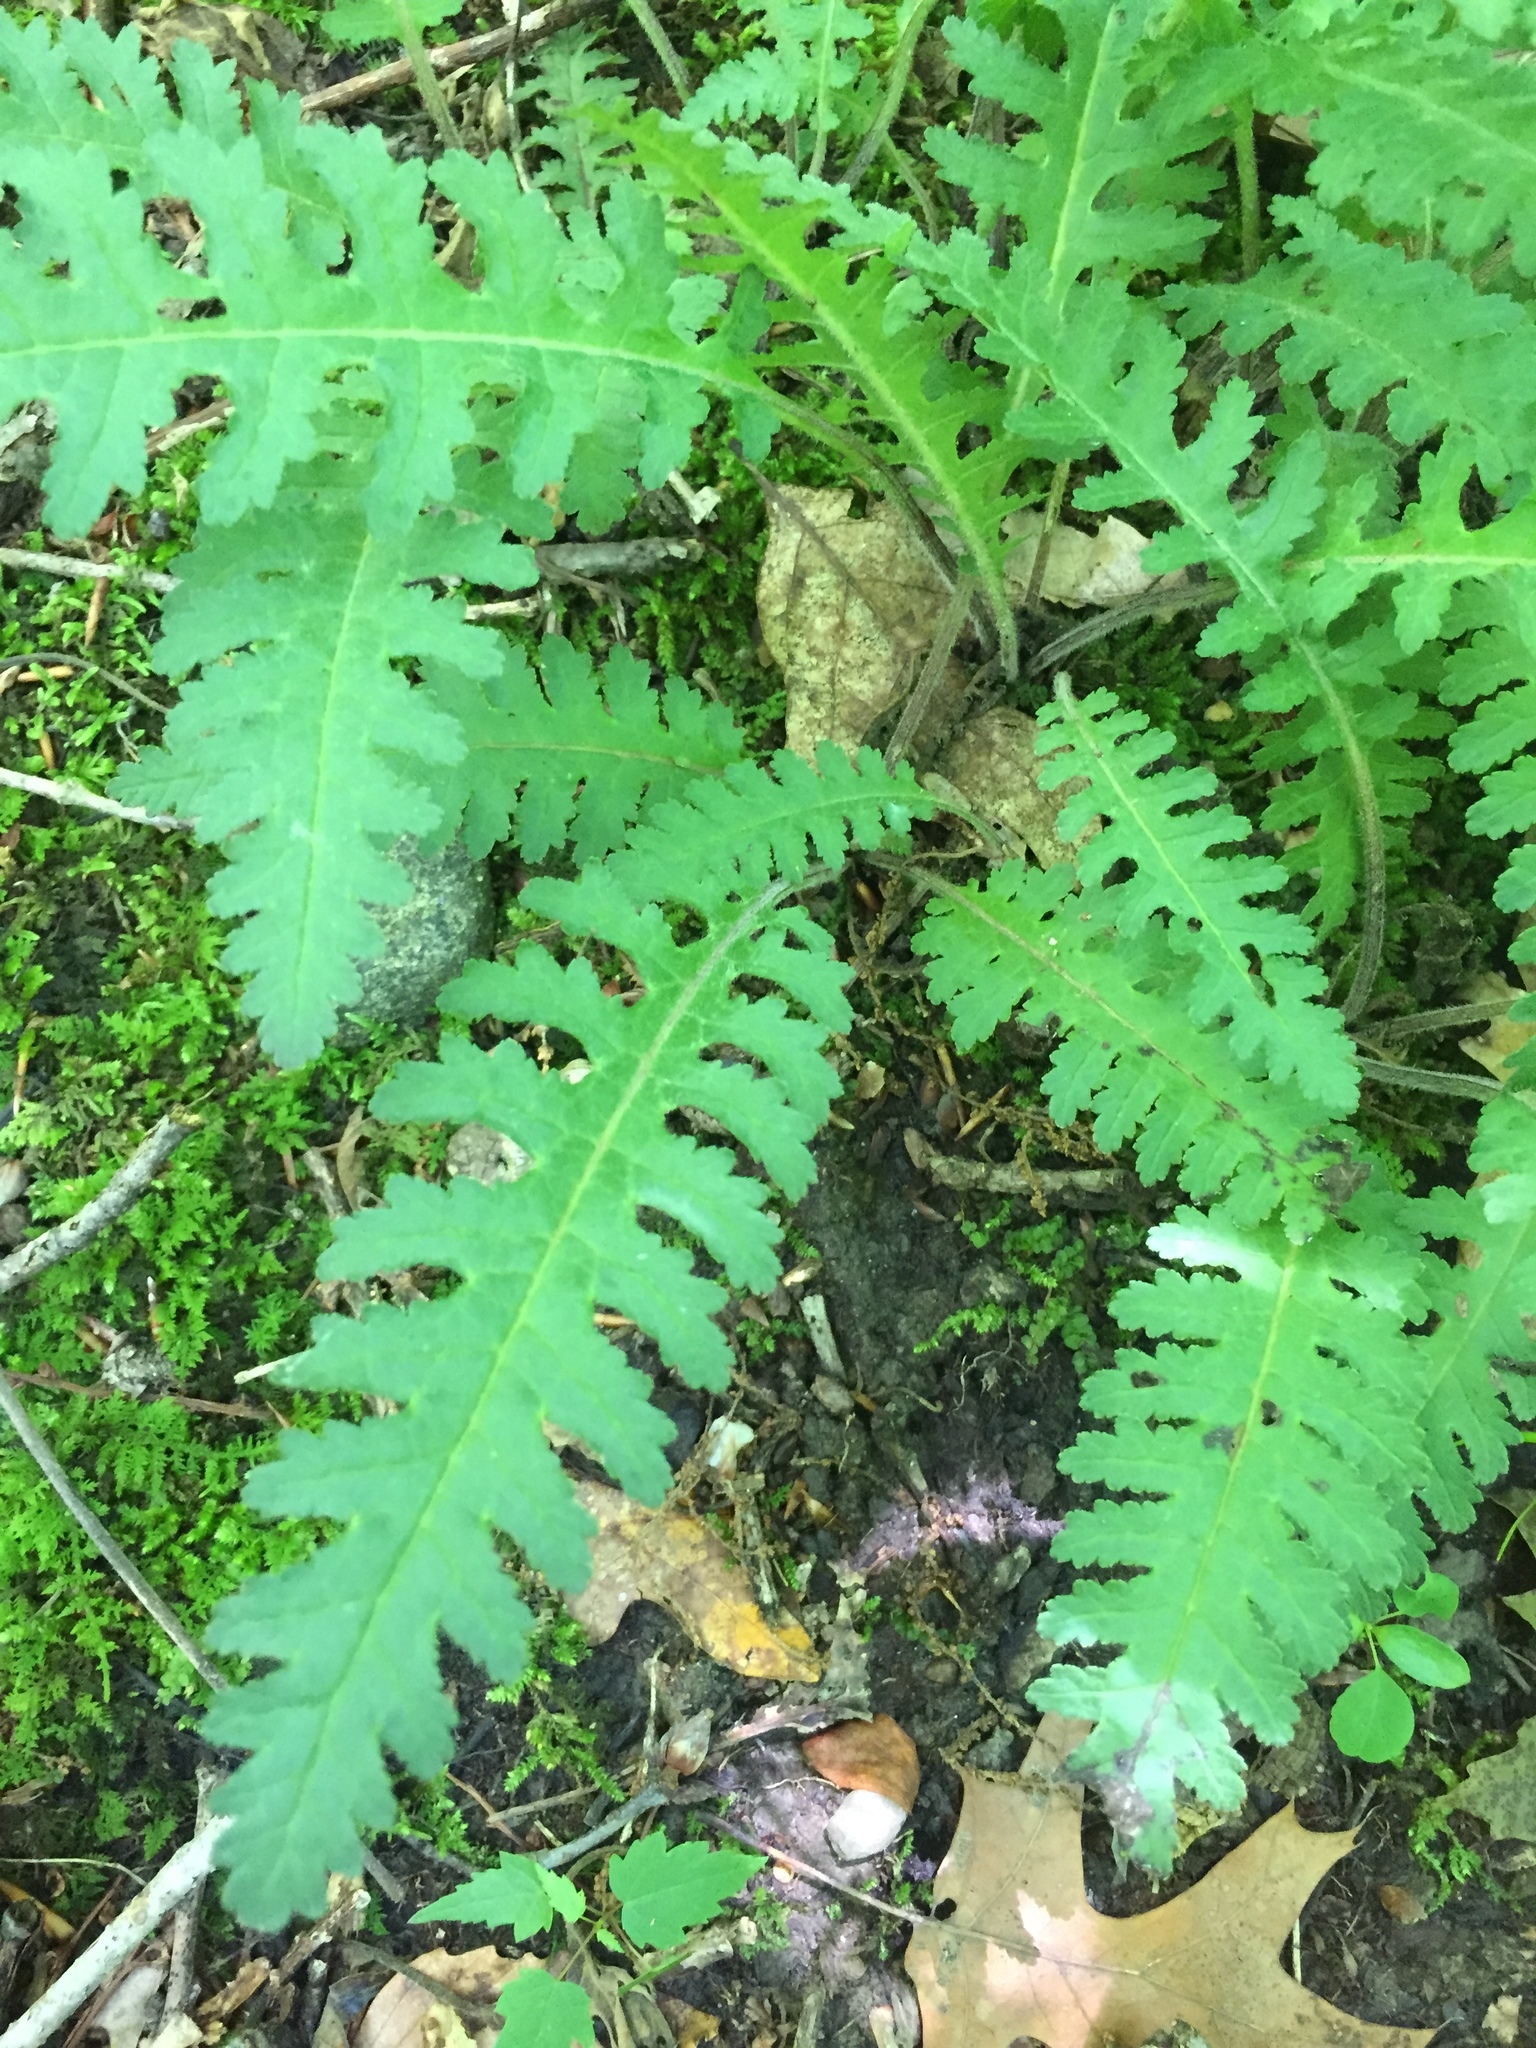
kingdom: Plantae
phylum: Tracheophyta
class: Magnoliopsida
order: Lamiales
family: Orobanchaceae
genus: Pedicularis
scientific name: Pedicularis canadensis
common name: Early lousewort
